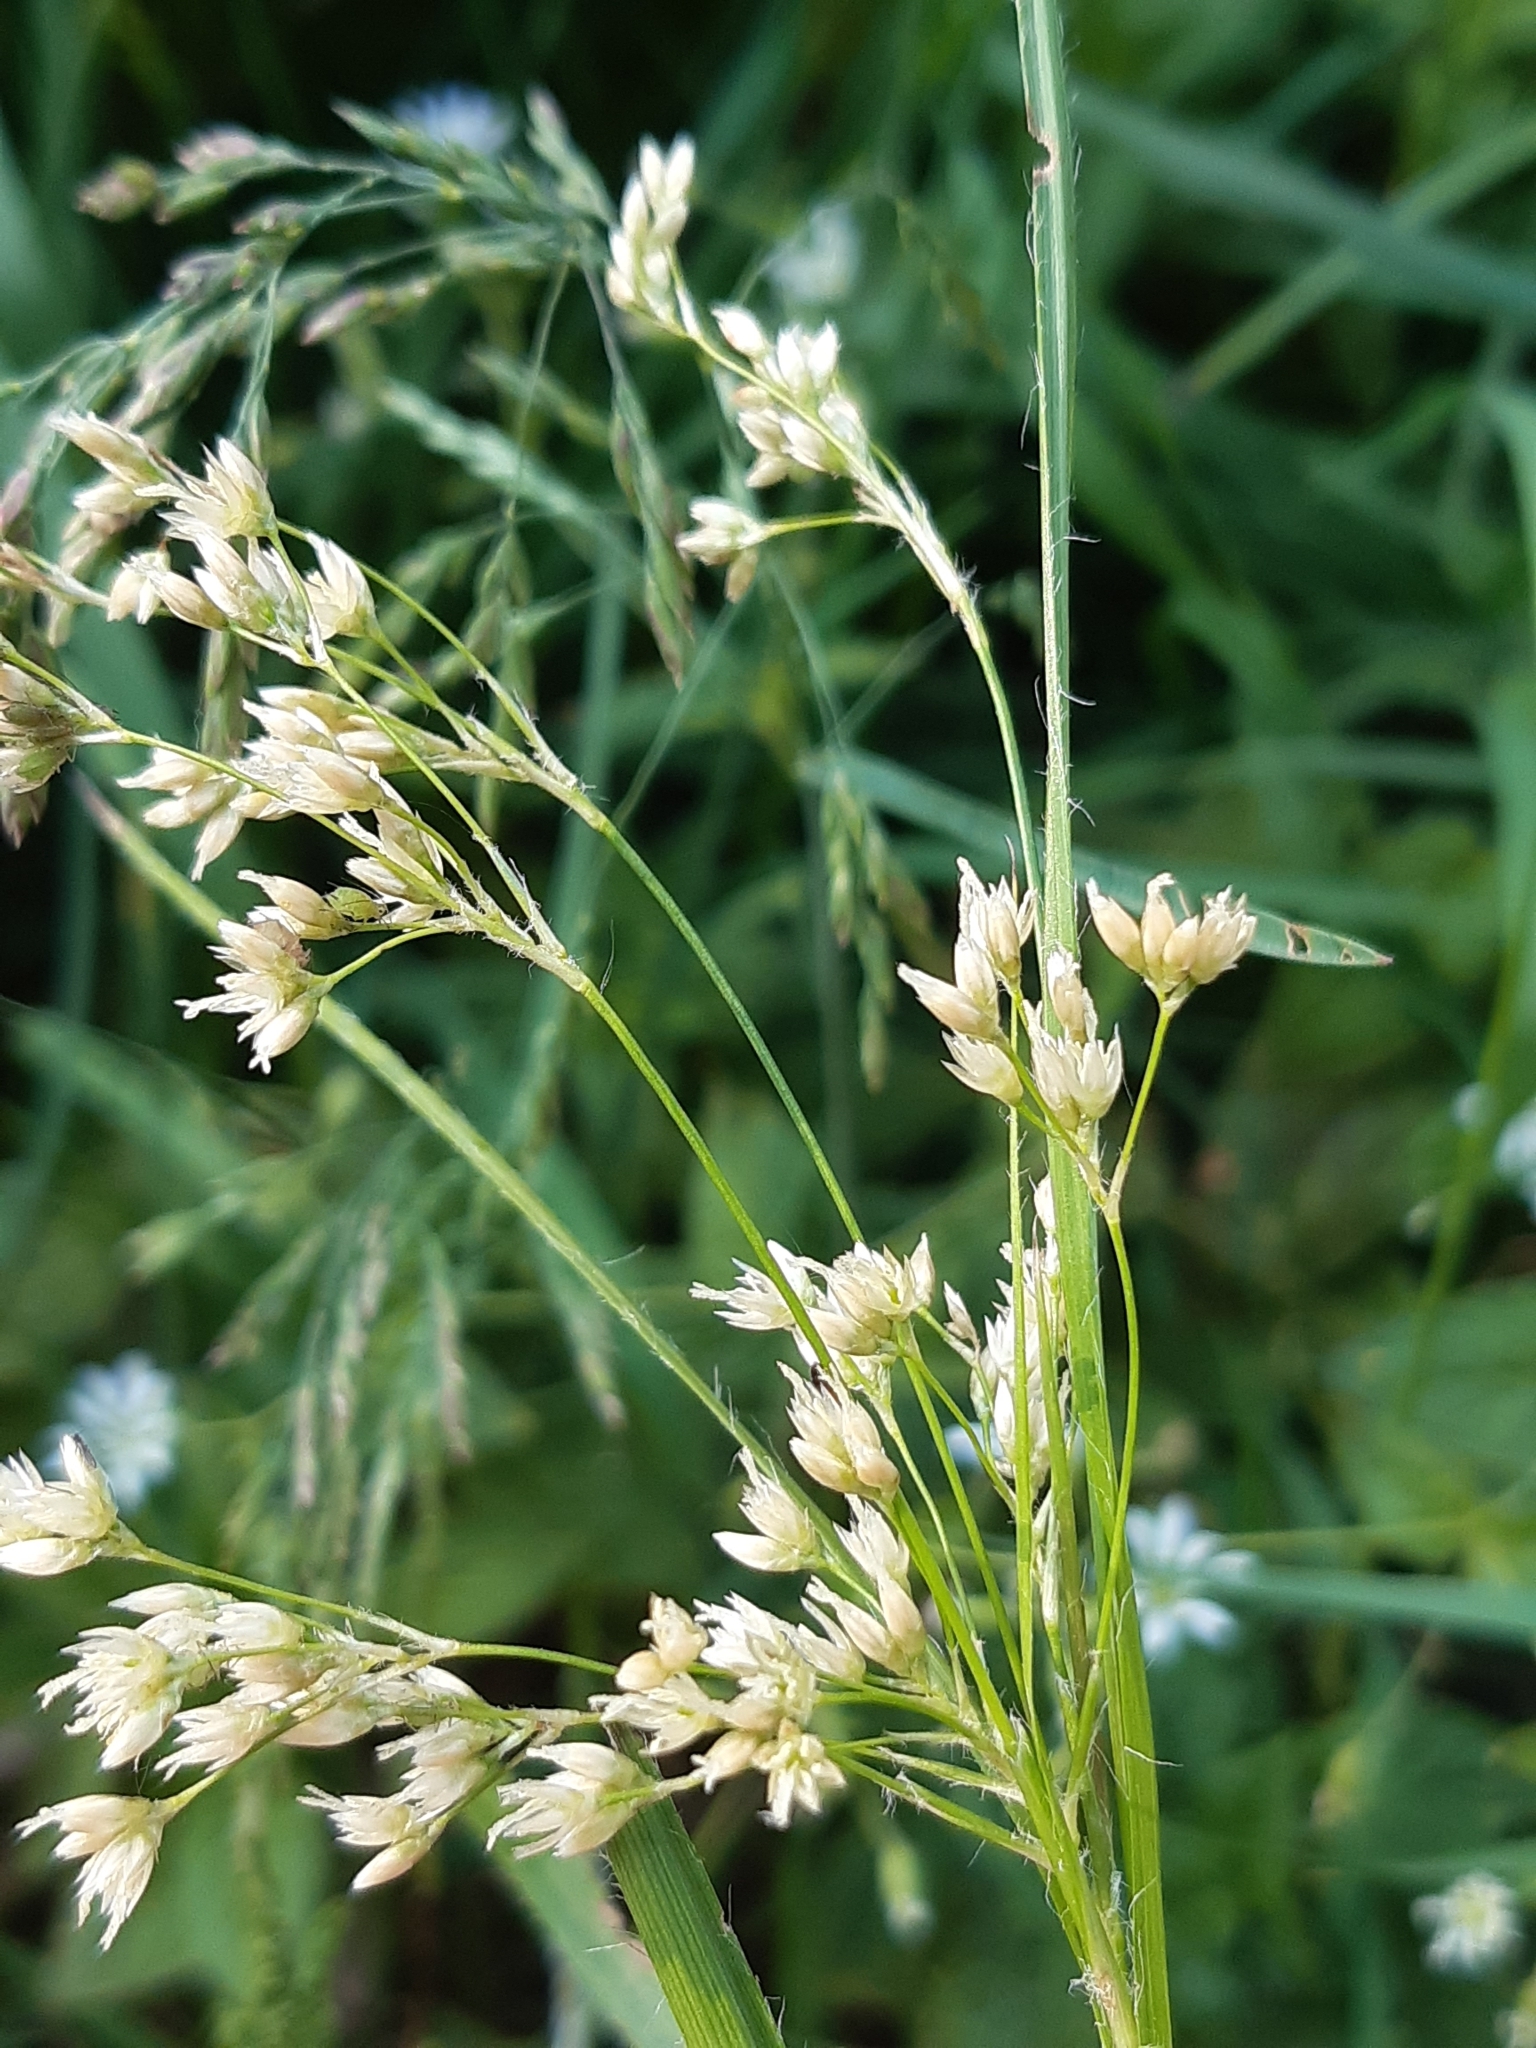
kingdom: Plantae
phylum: Tracheophyta
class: Liliopsida
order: Poales
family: Juncaceae
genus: Luzula
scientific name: Luzula luzuloides
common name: White wood-rush
